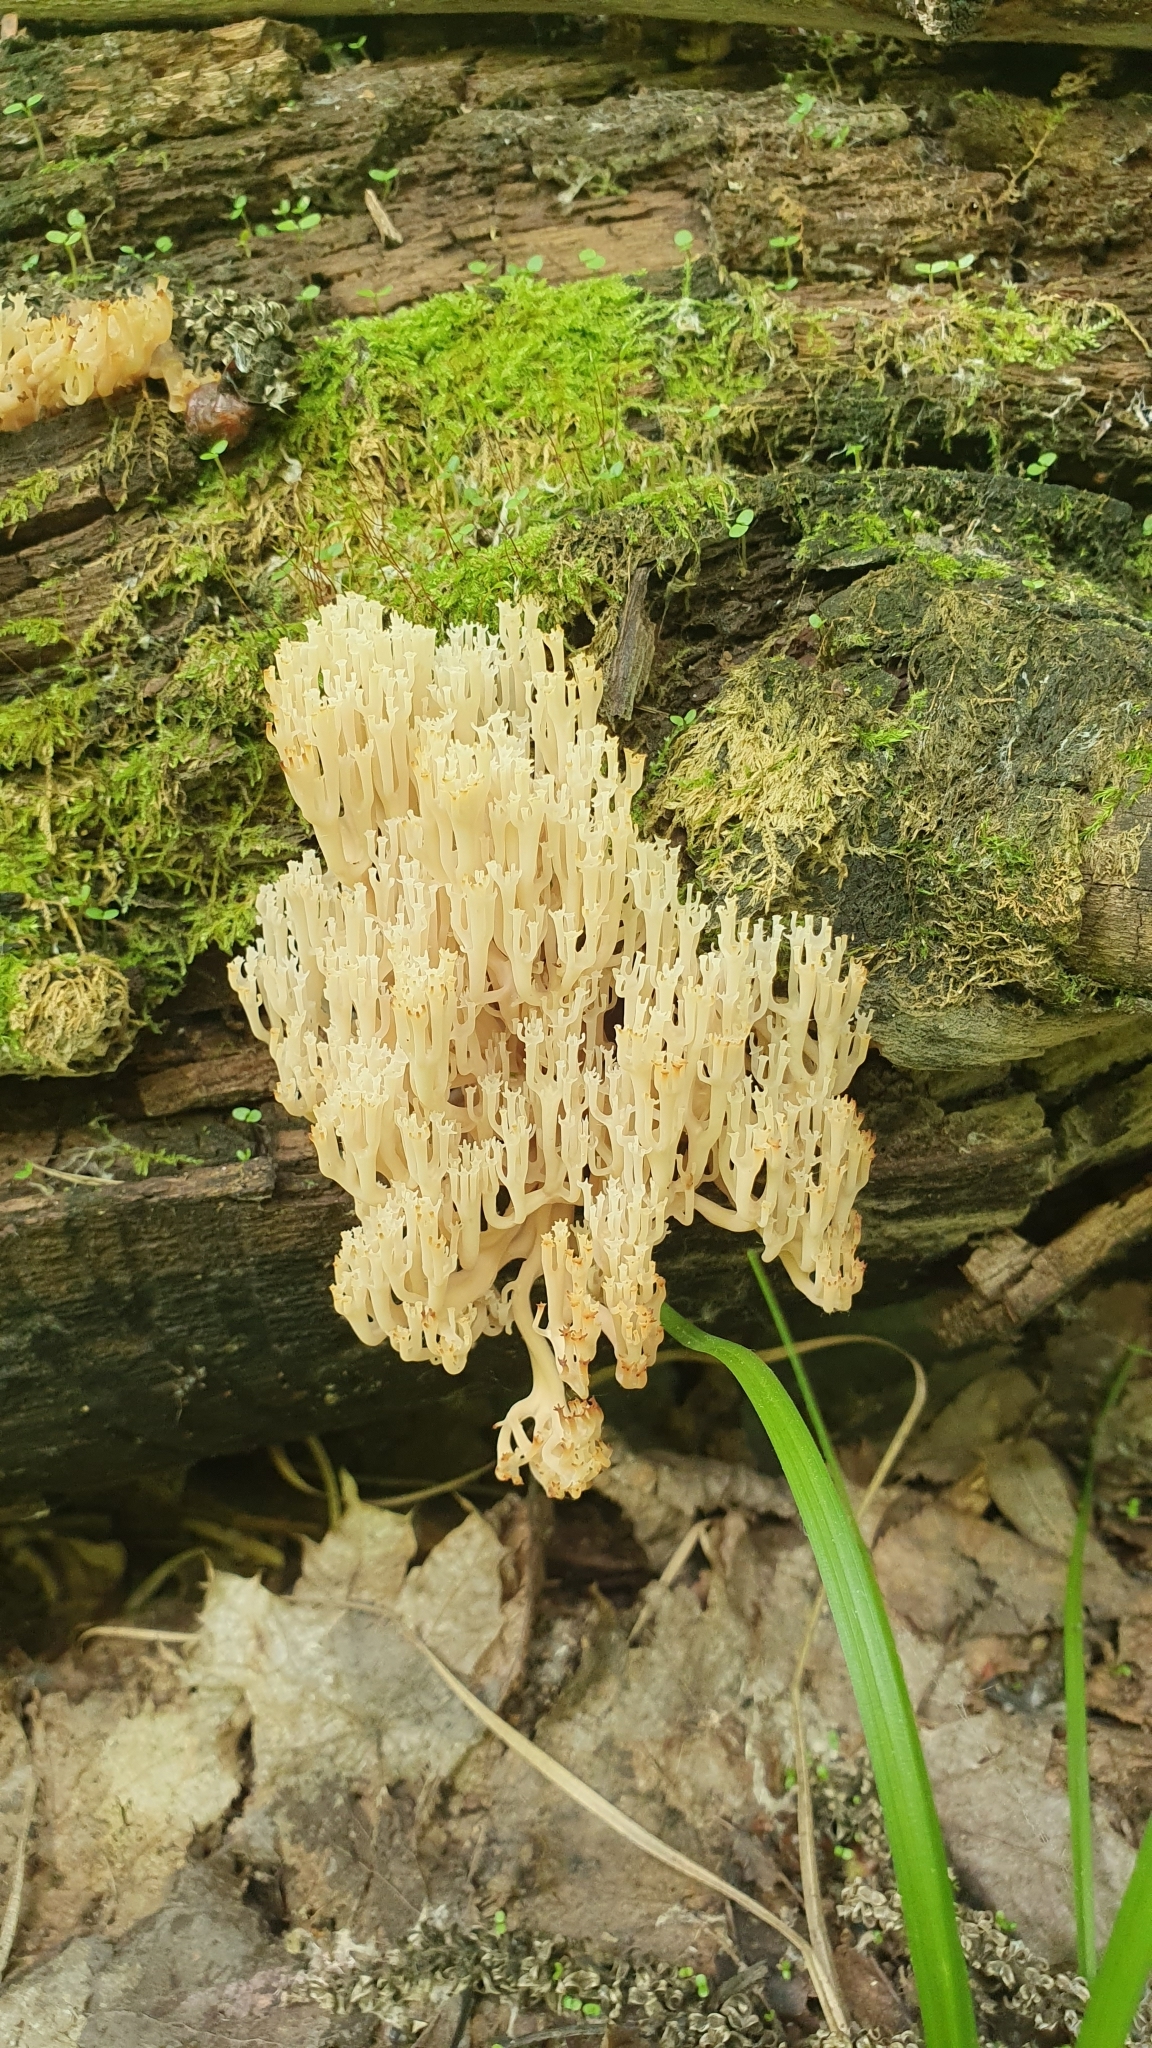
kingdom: Fungi
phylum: Basidiomycota
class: Agaricomycetes
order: Russulales
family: Auriscalpiaceae
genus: Artomyces
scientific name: Artomyces pyxidatus
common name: Crown-tipped coral fungus
